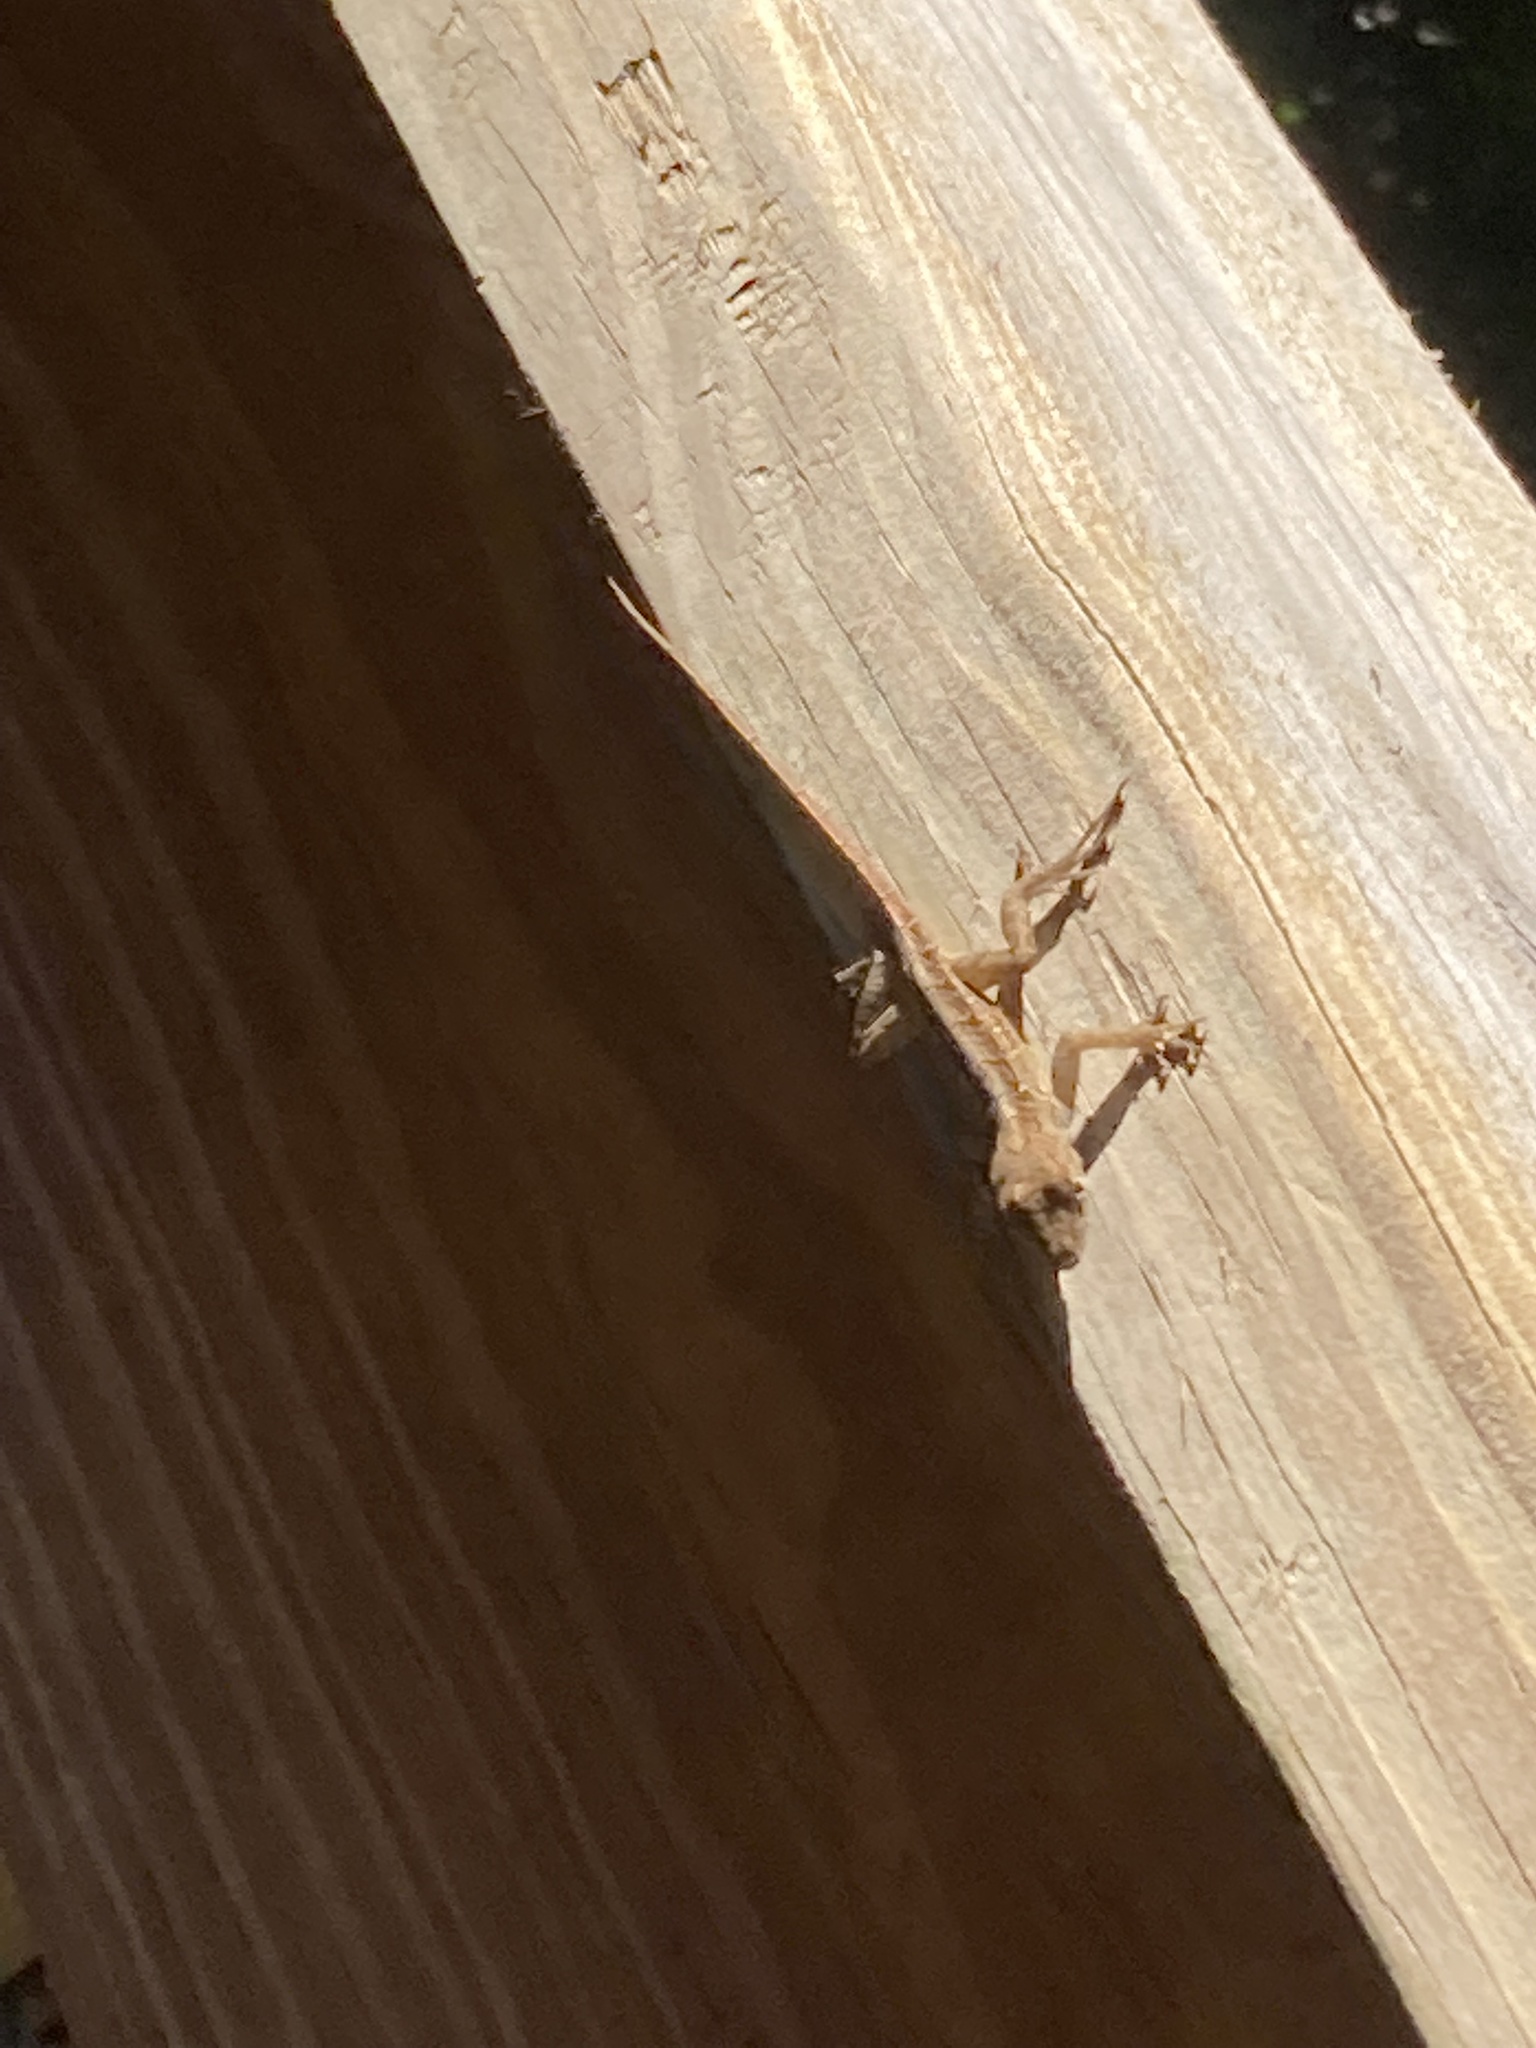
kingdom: Animalia
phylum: Chordata
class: Squamata
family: Dactyloidae
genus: Anolis
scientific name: Anolis sagrei
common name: Brown anole
